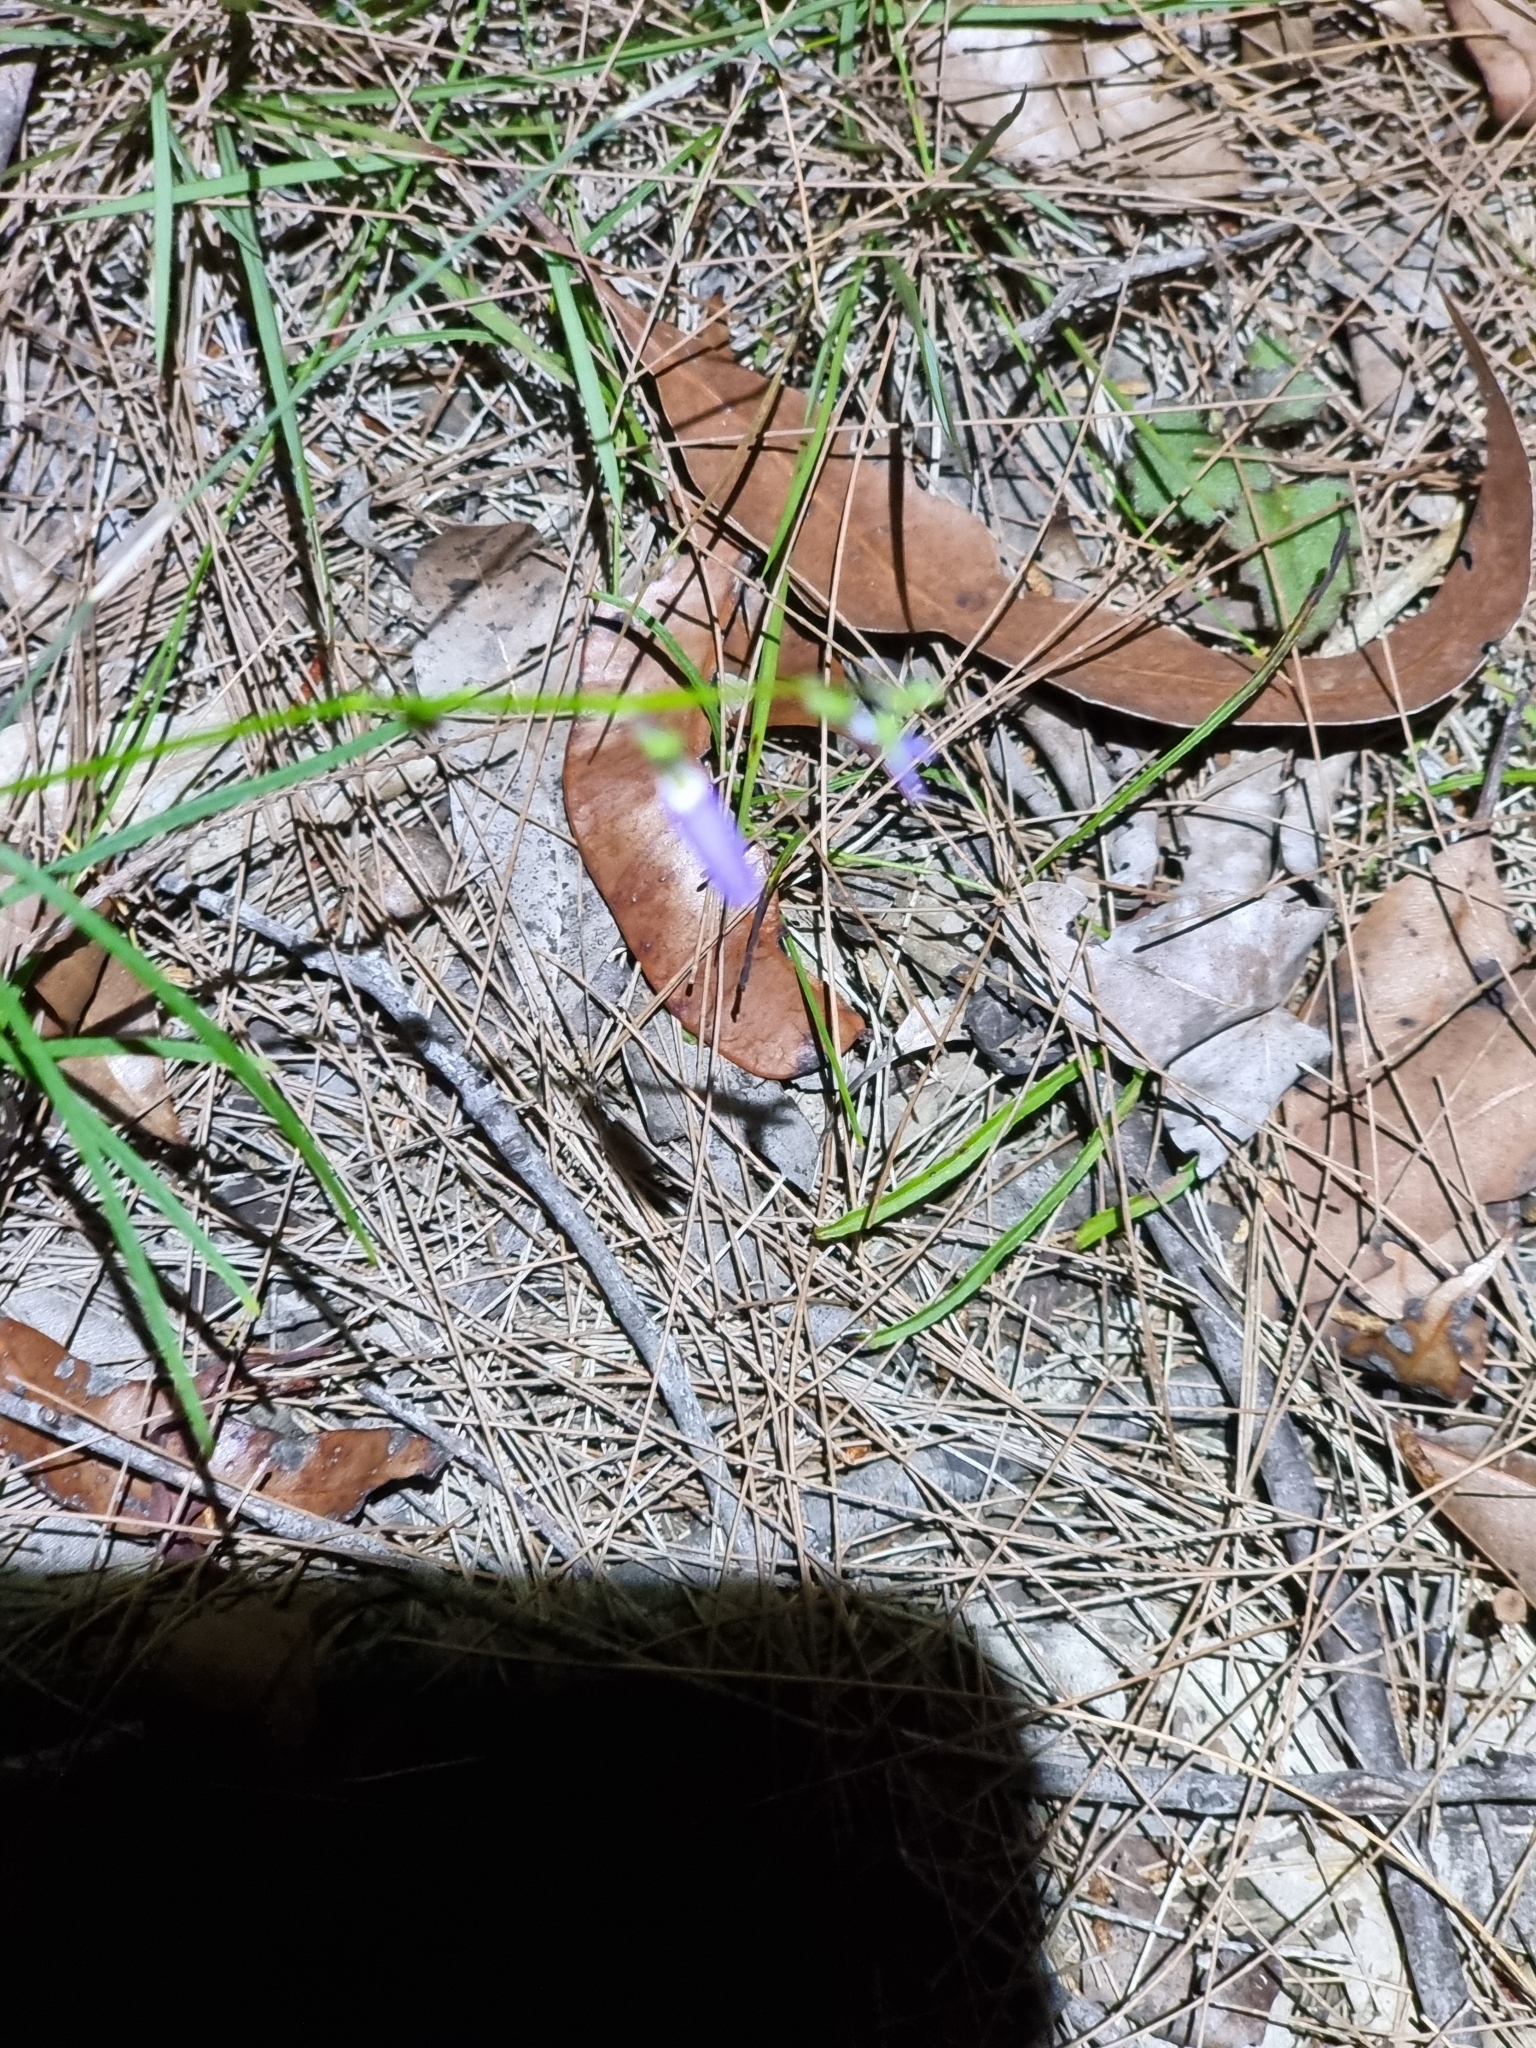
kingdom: Plantae
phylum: Tracheophyta
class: Magnoliopsida
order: Malpighiales
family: Violaceae
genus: Pigea
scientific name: Pigea monopetala
